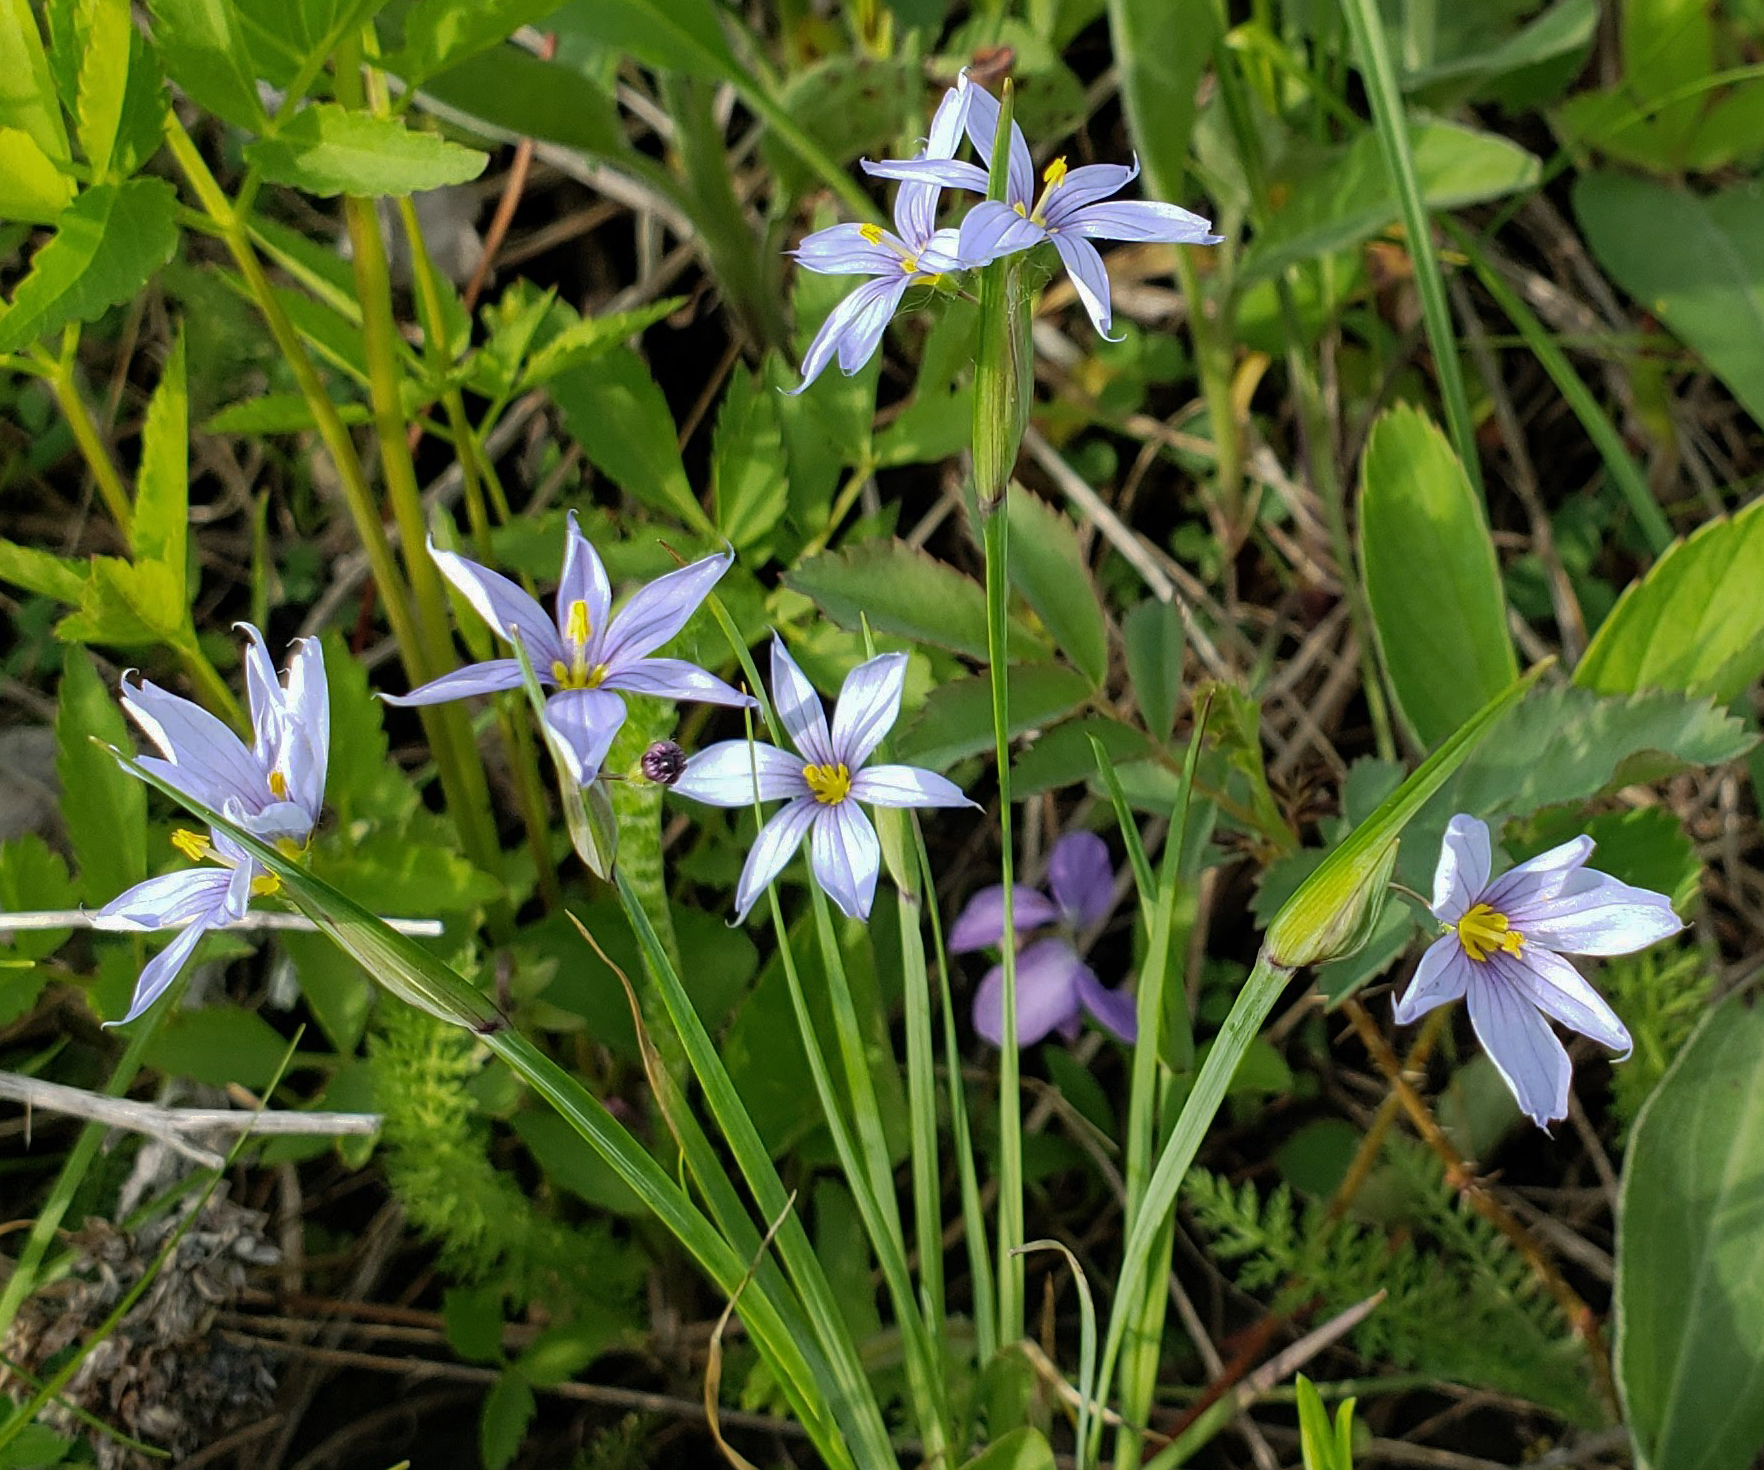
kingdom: Plantae
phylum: Tracheophyta
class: Liliopsida
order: Asparagales
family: Iridaceae
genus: Sisyrinchium
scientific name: Sisyrinchium campestre
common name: Prairie blue-eyed-grass
